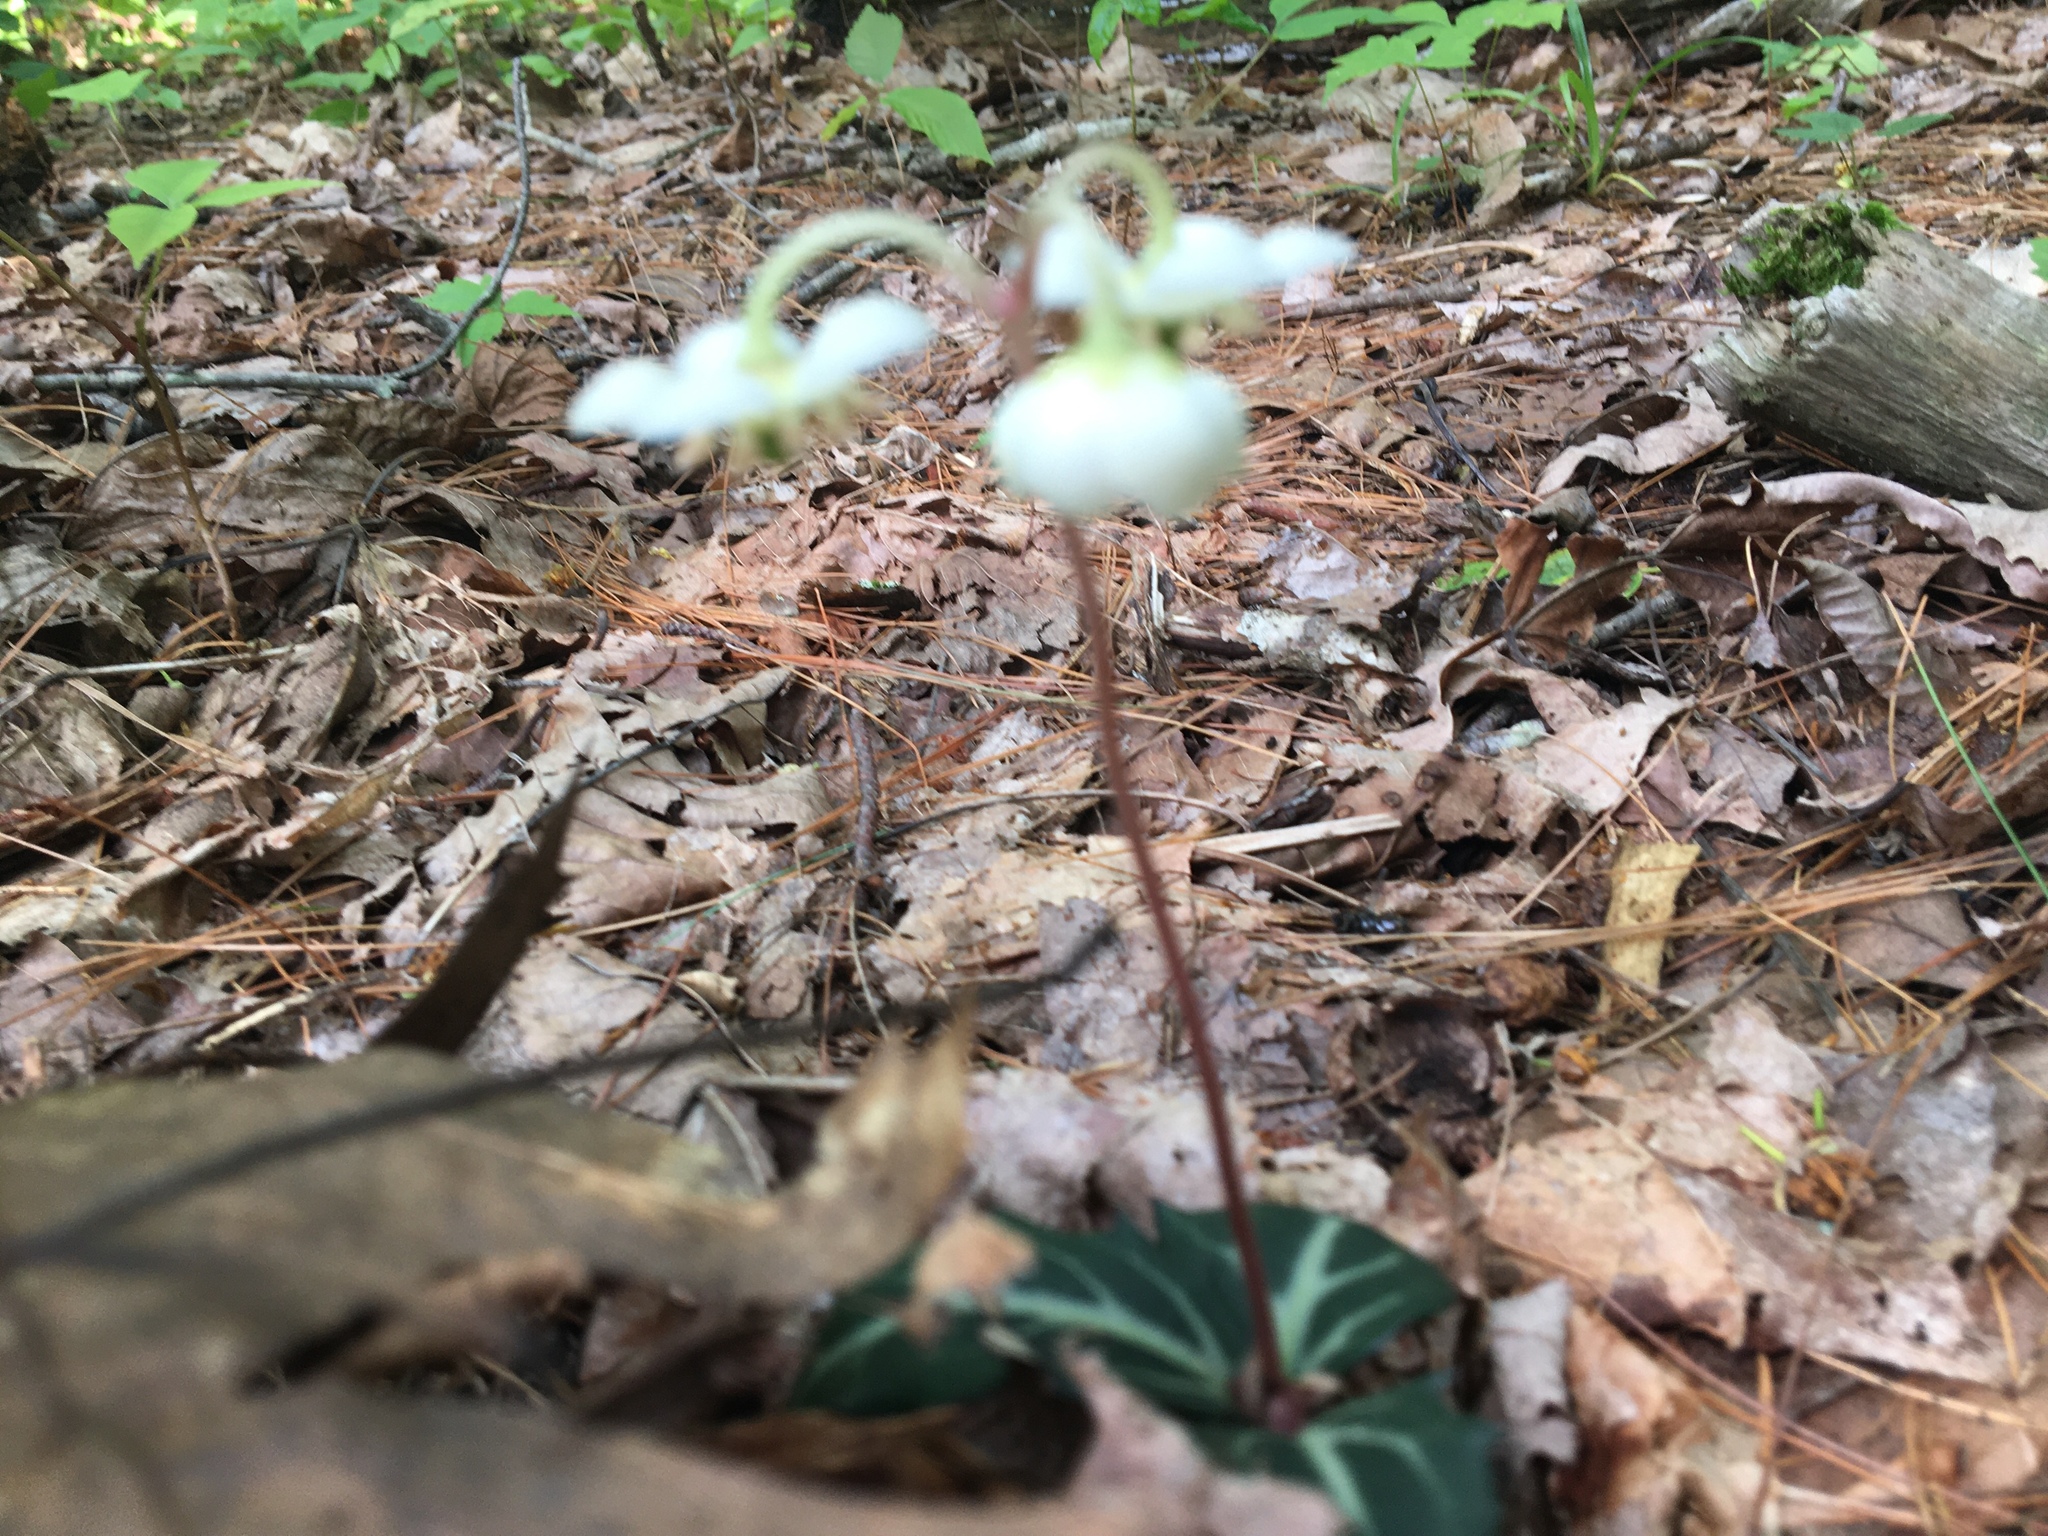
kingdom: Plantae
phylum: Tracheophyta
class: Magnoliopsida
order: Ericales
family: Ericaceae
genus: Chimaphila
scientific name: Chimaphila maculata
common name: Spotted pipsissewa
